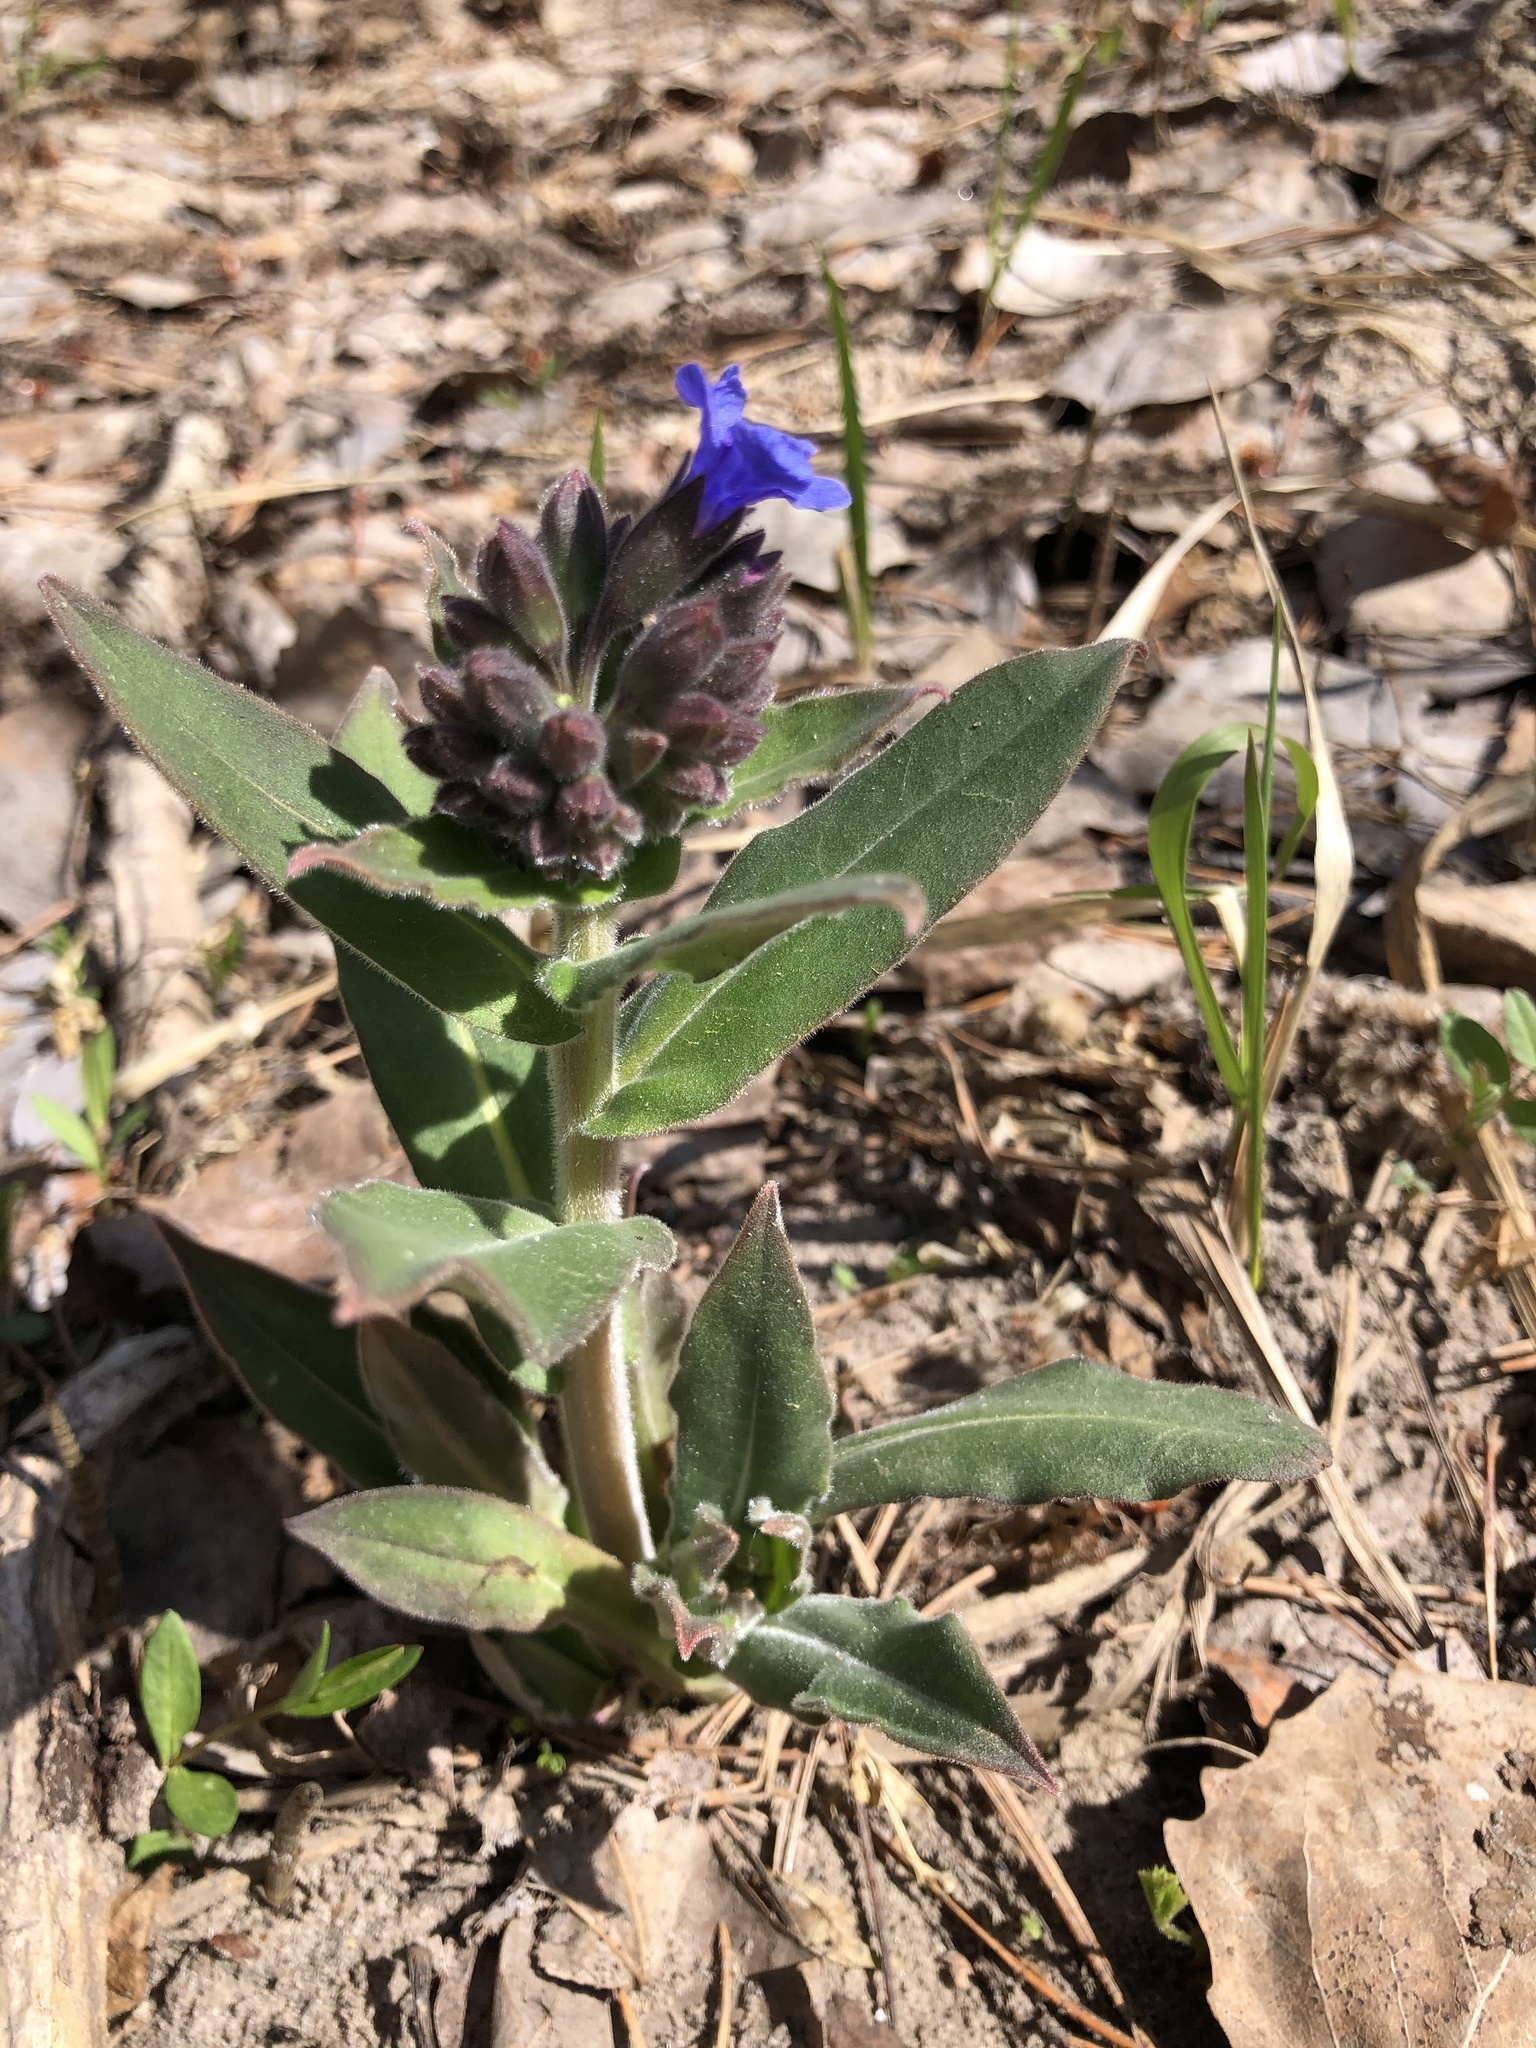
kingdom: Plantae
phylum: Tracheophyta
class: Magnoliopsida
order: Boraginales
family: Boraginaceae
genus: Pulmonaria
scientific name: Pulmonaria mollis
